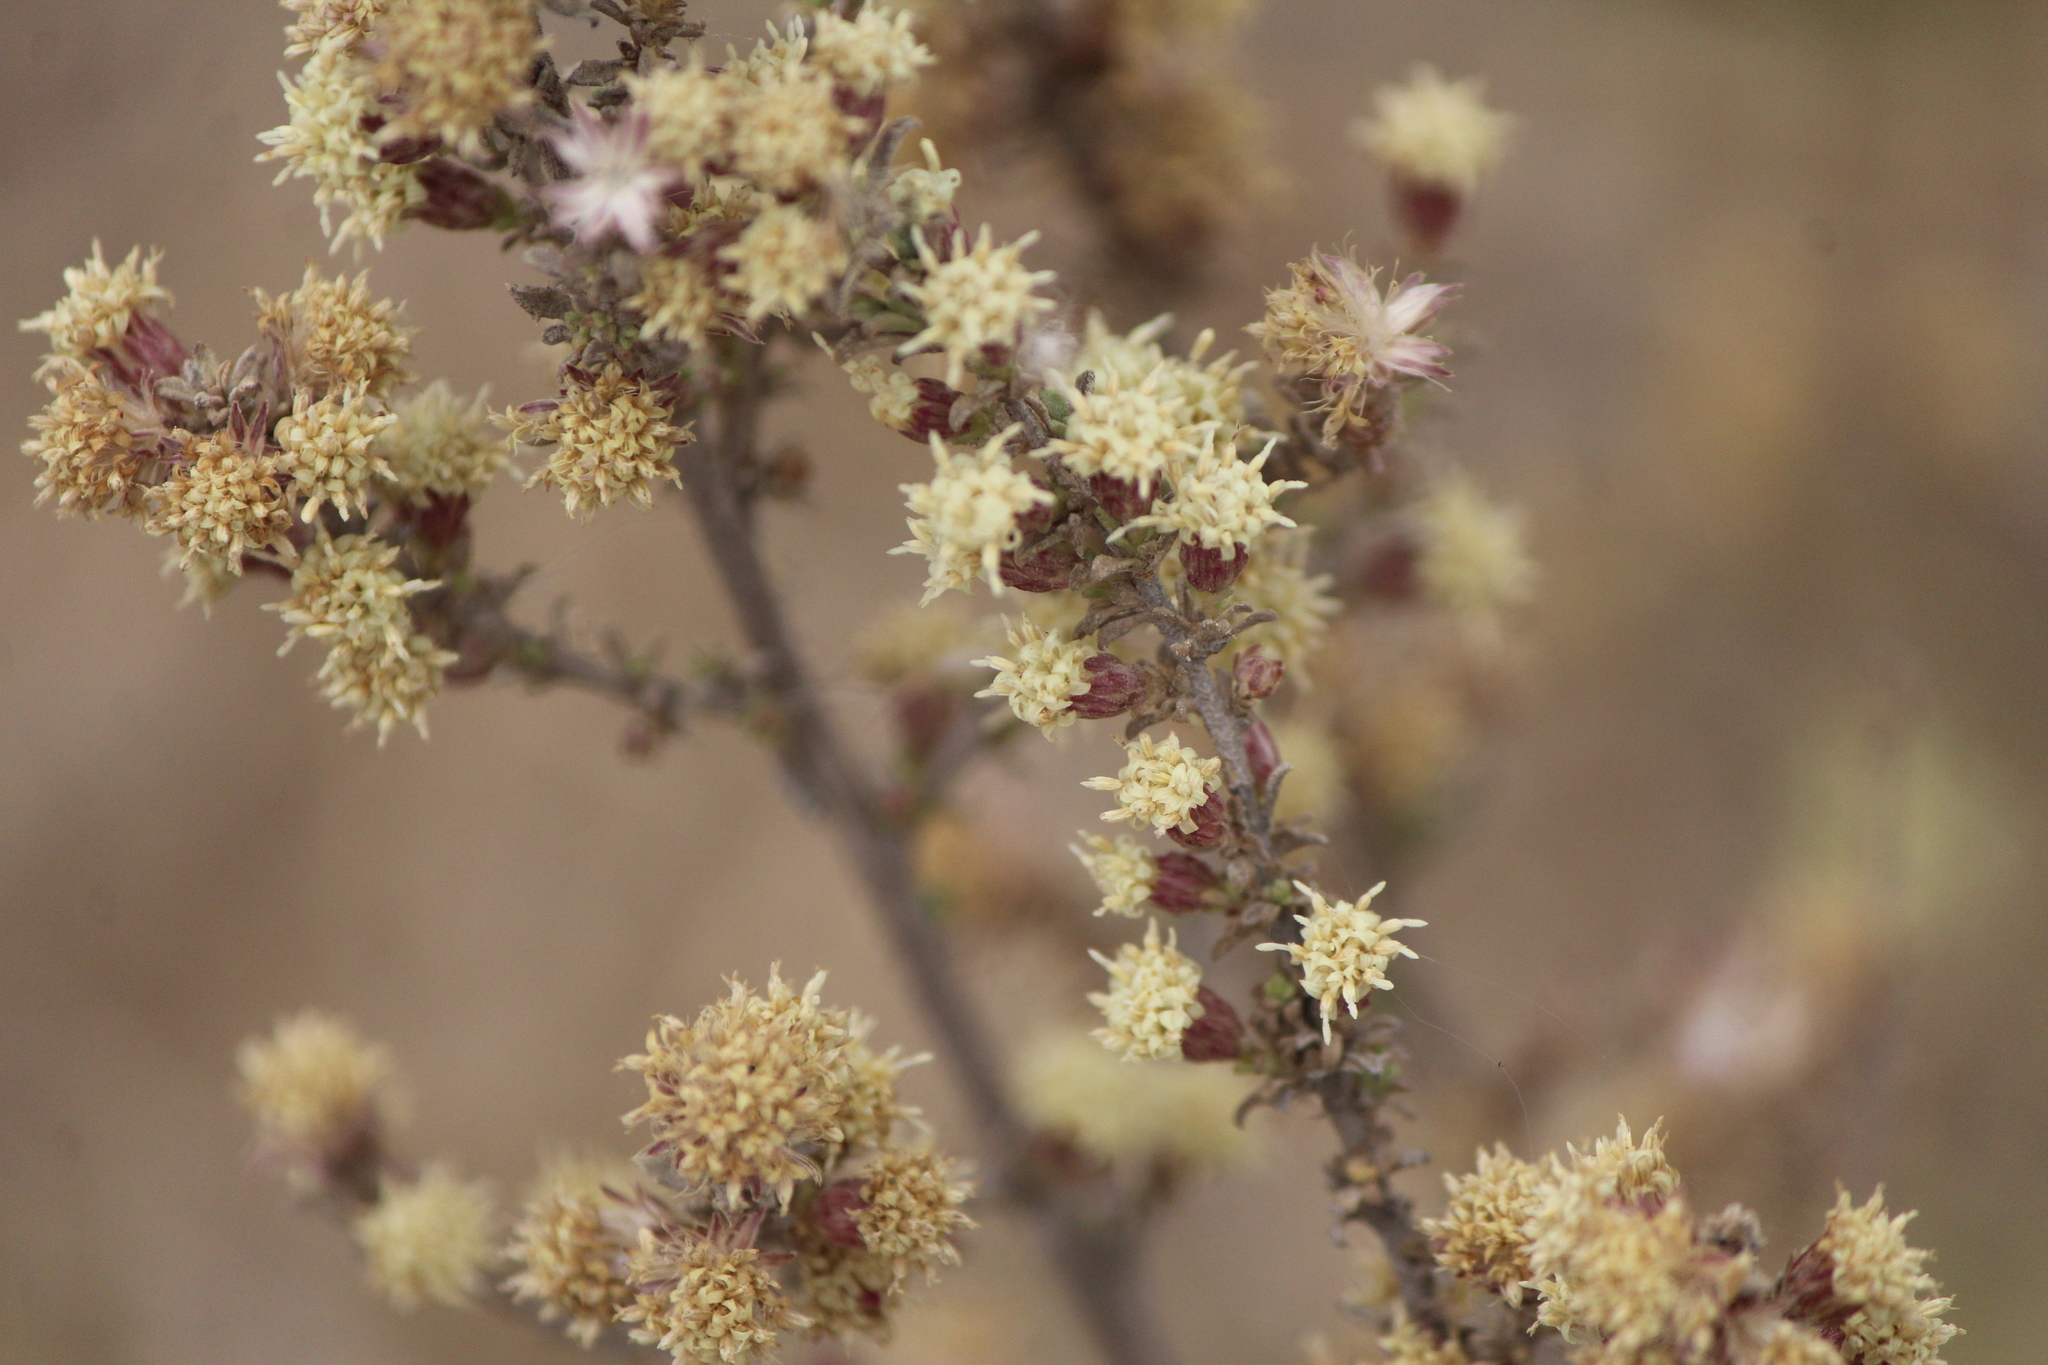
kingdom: Plantae
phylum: Tracheophyta
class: Magnoliopsida
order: Asterales
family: Asteraceae
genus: Baccharis
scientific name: Baccharis pteronioides
